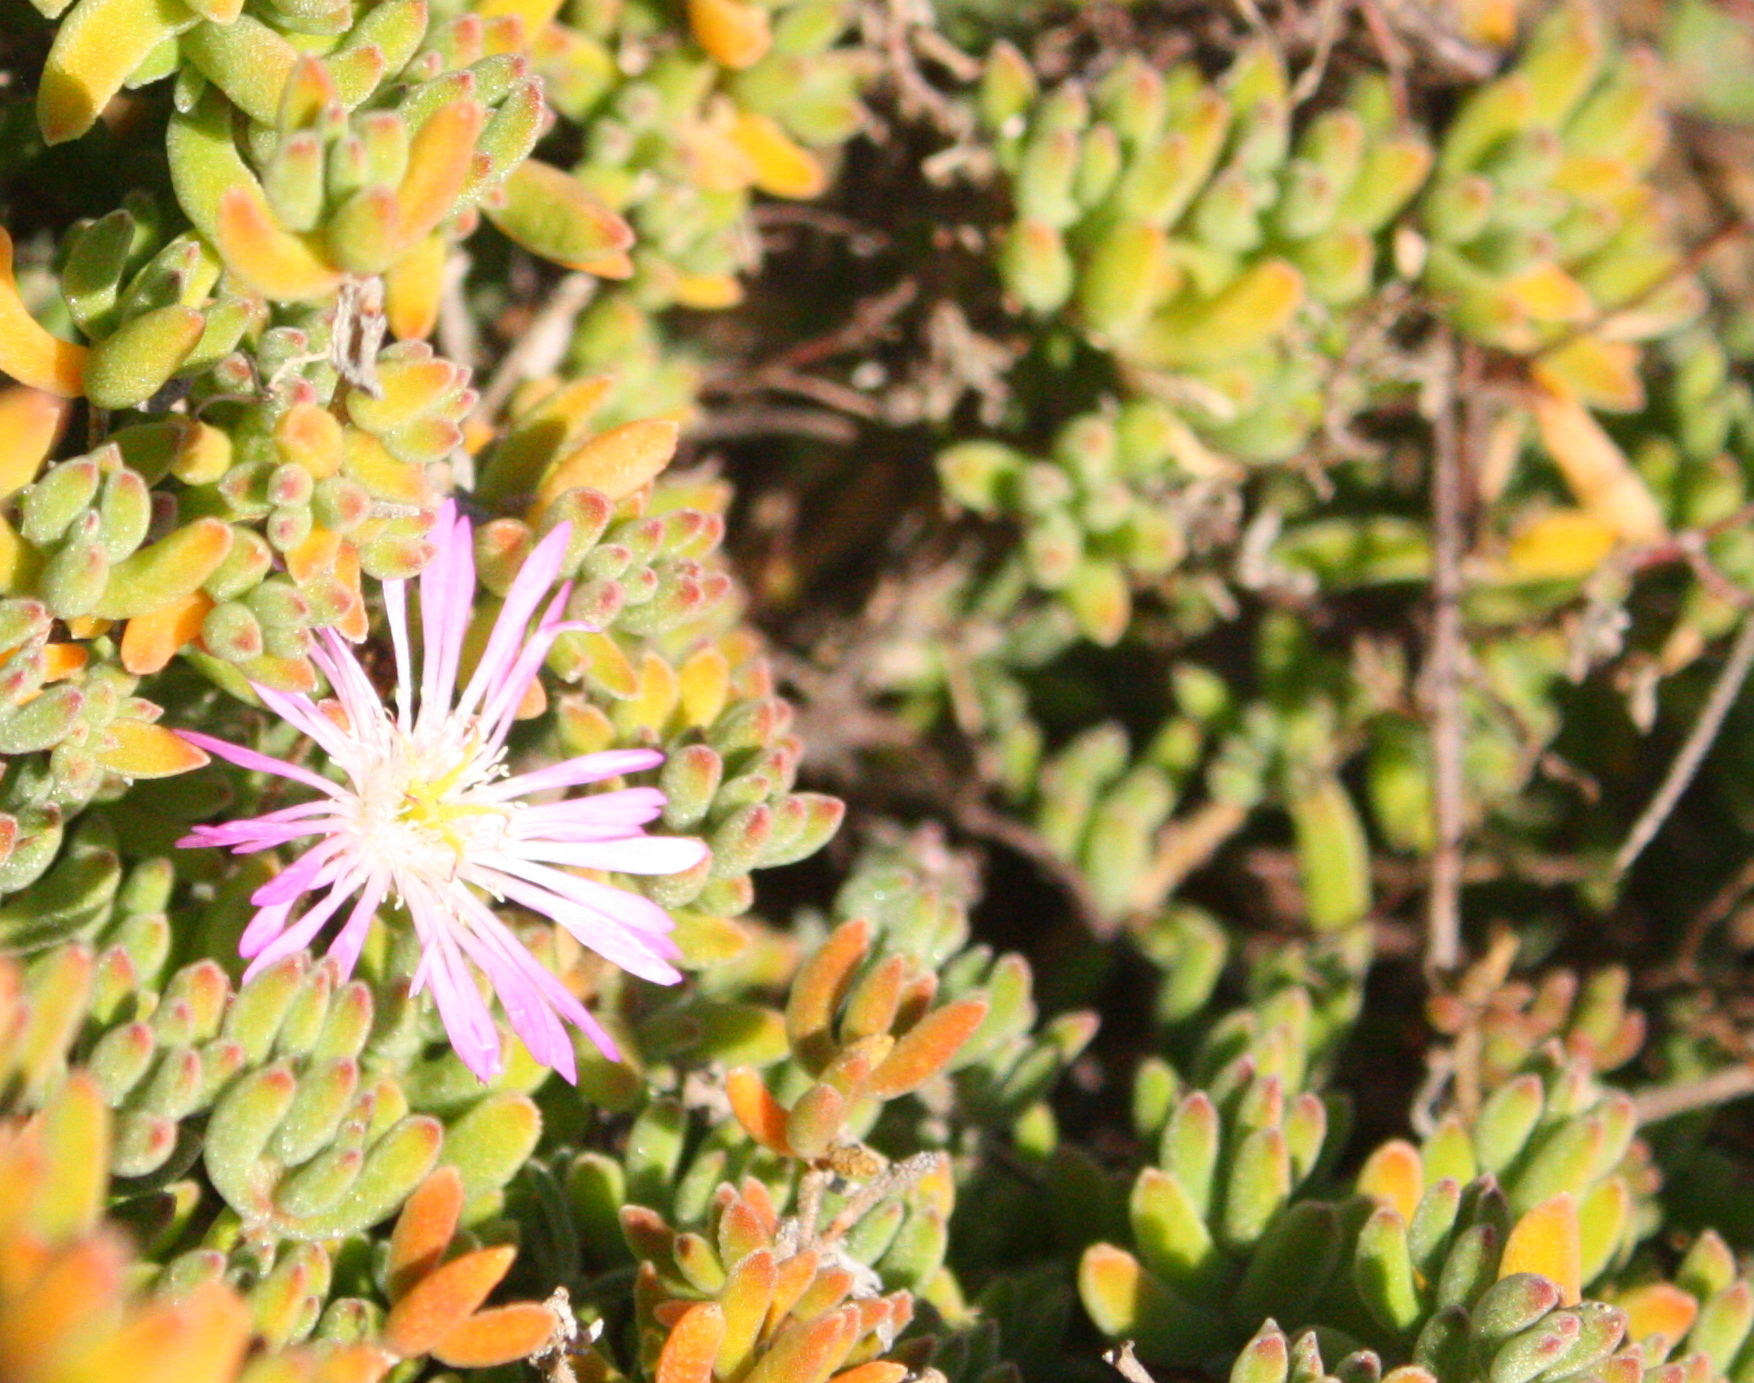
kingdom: Plantae
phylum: Tracheophyta
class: Magnoliopsida
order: Caryophyllales
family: Aizoaceae
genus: Drosanthemum
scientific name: Drosanthemum floribundum
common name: Pale dewplant
